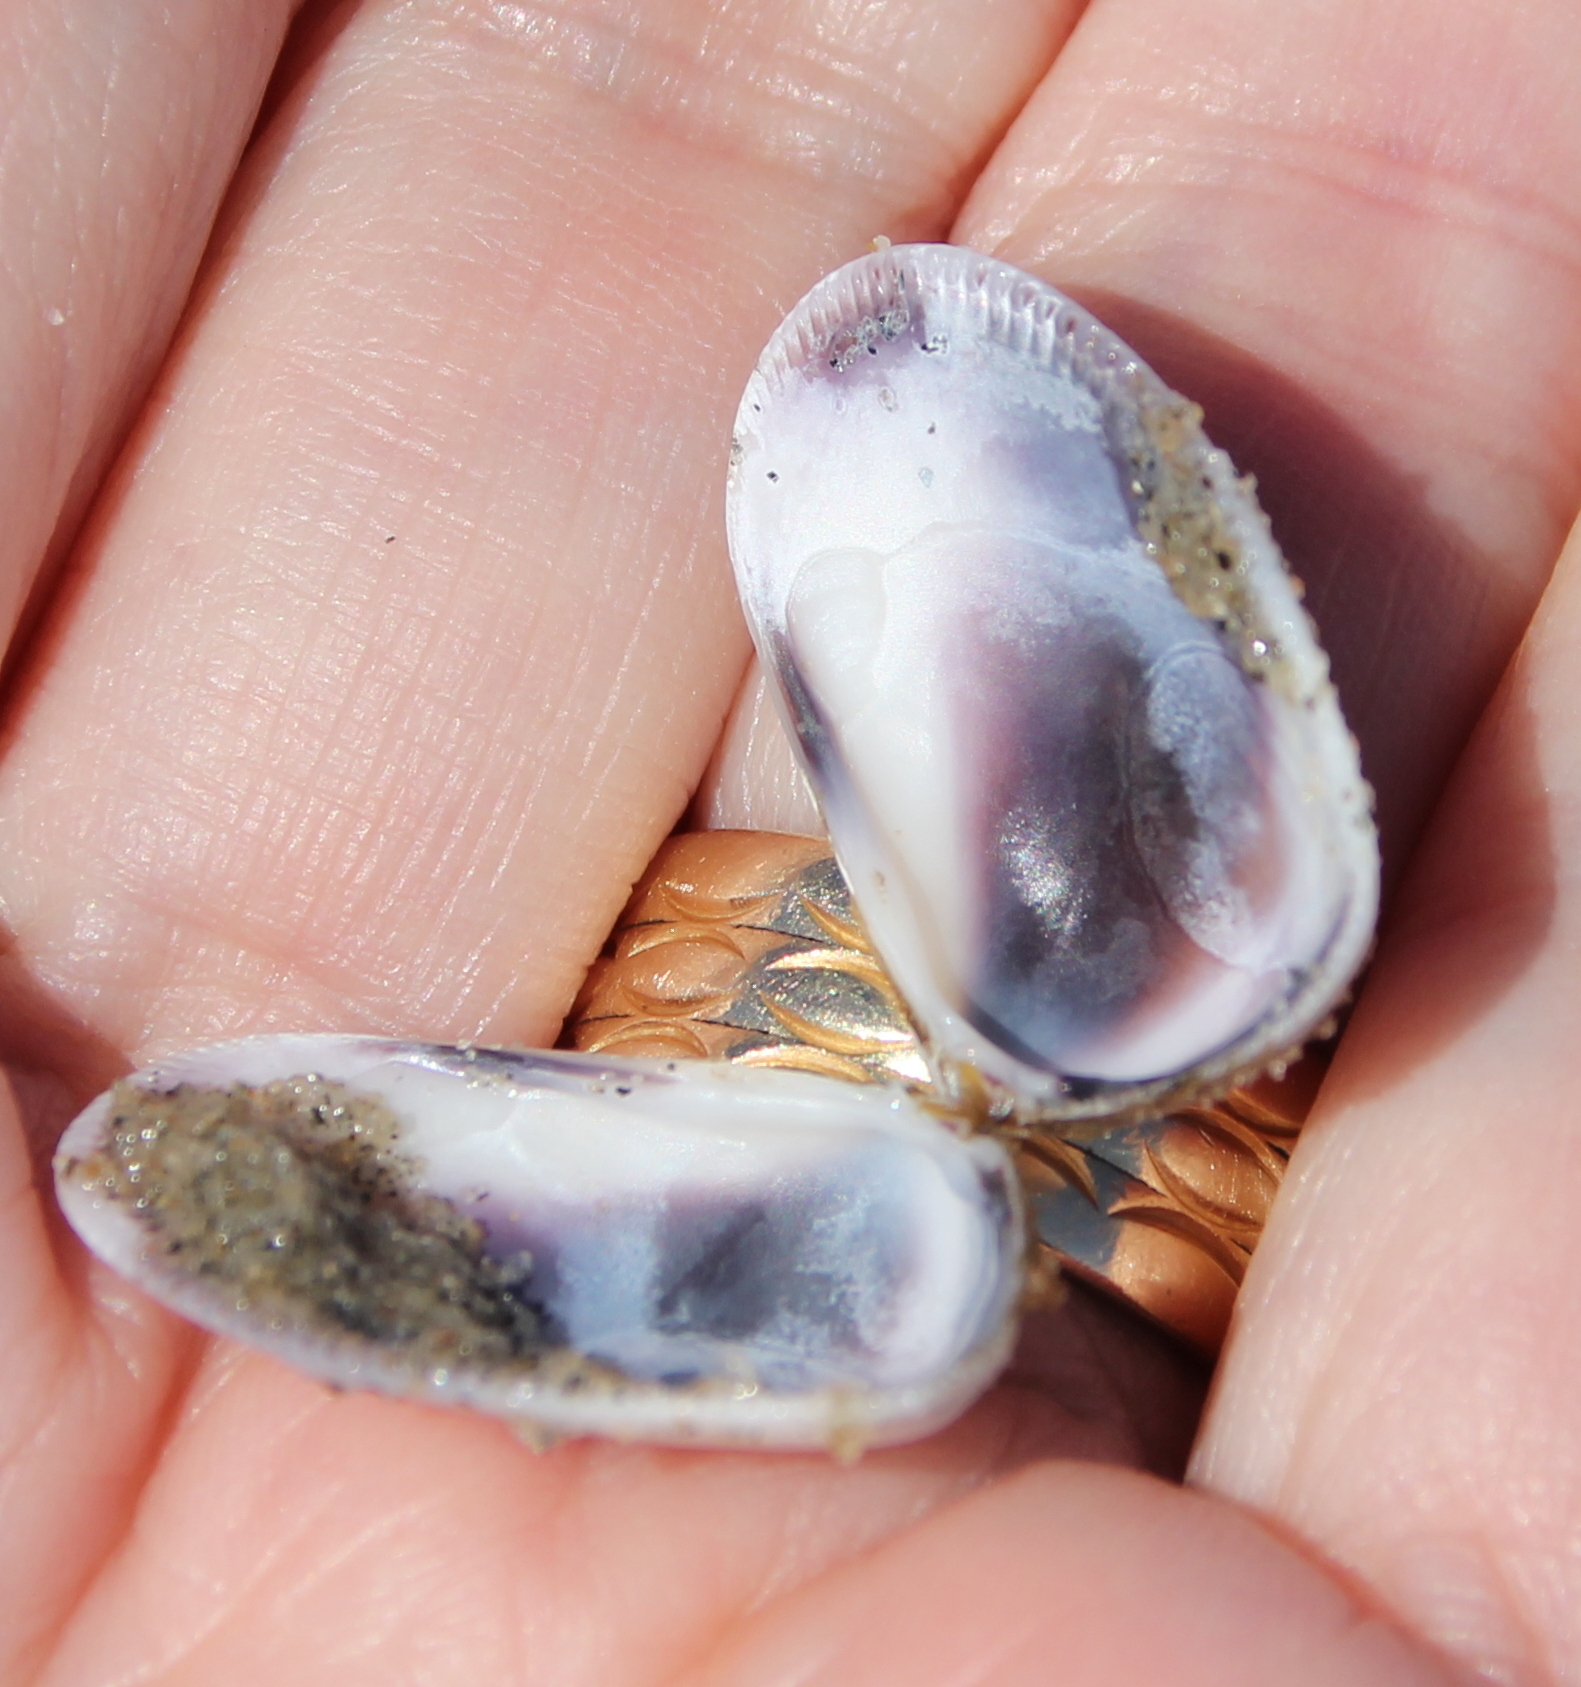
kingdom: Animalia
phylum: Mollusca
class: Bivalvia
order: Cardiida
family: Donacidae
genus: Donax
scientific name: Donax gouldii
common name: Gould beanclam
